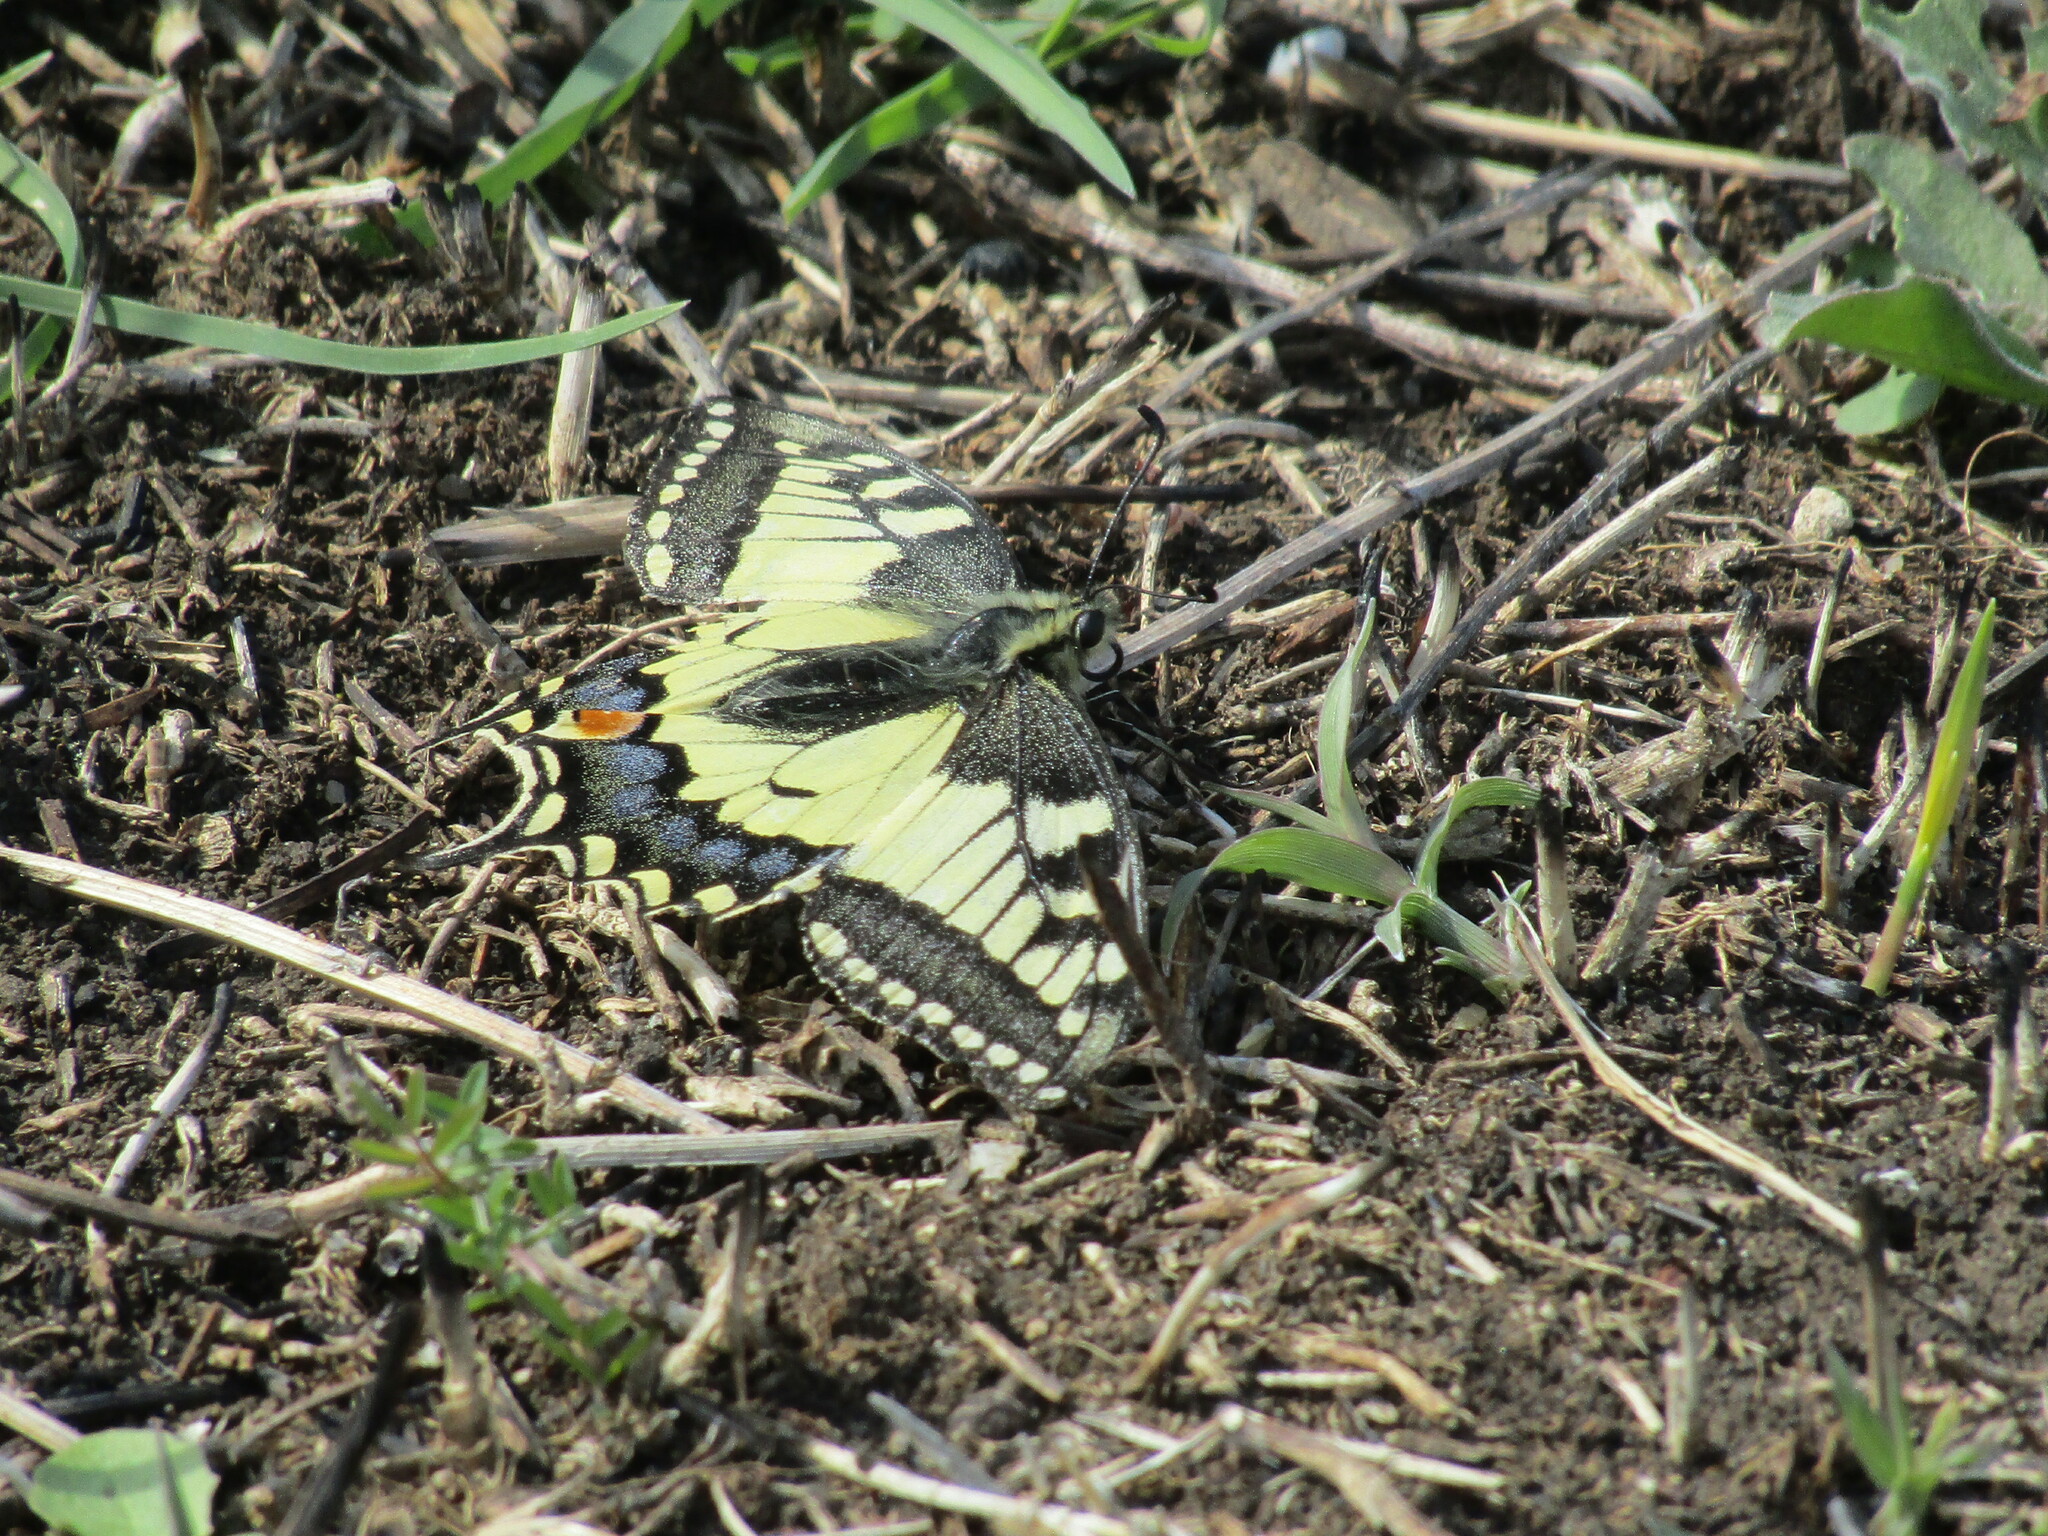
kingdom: Animalia
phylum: Arthropoda
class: Insecta
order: Lepidoptera
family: Papilionidae
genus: Papilio
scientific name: Papilio machaon
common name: Swallowtail
